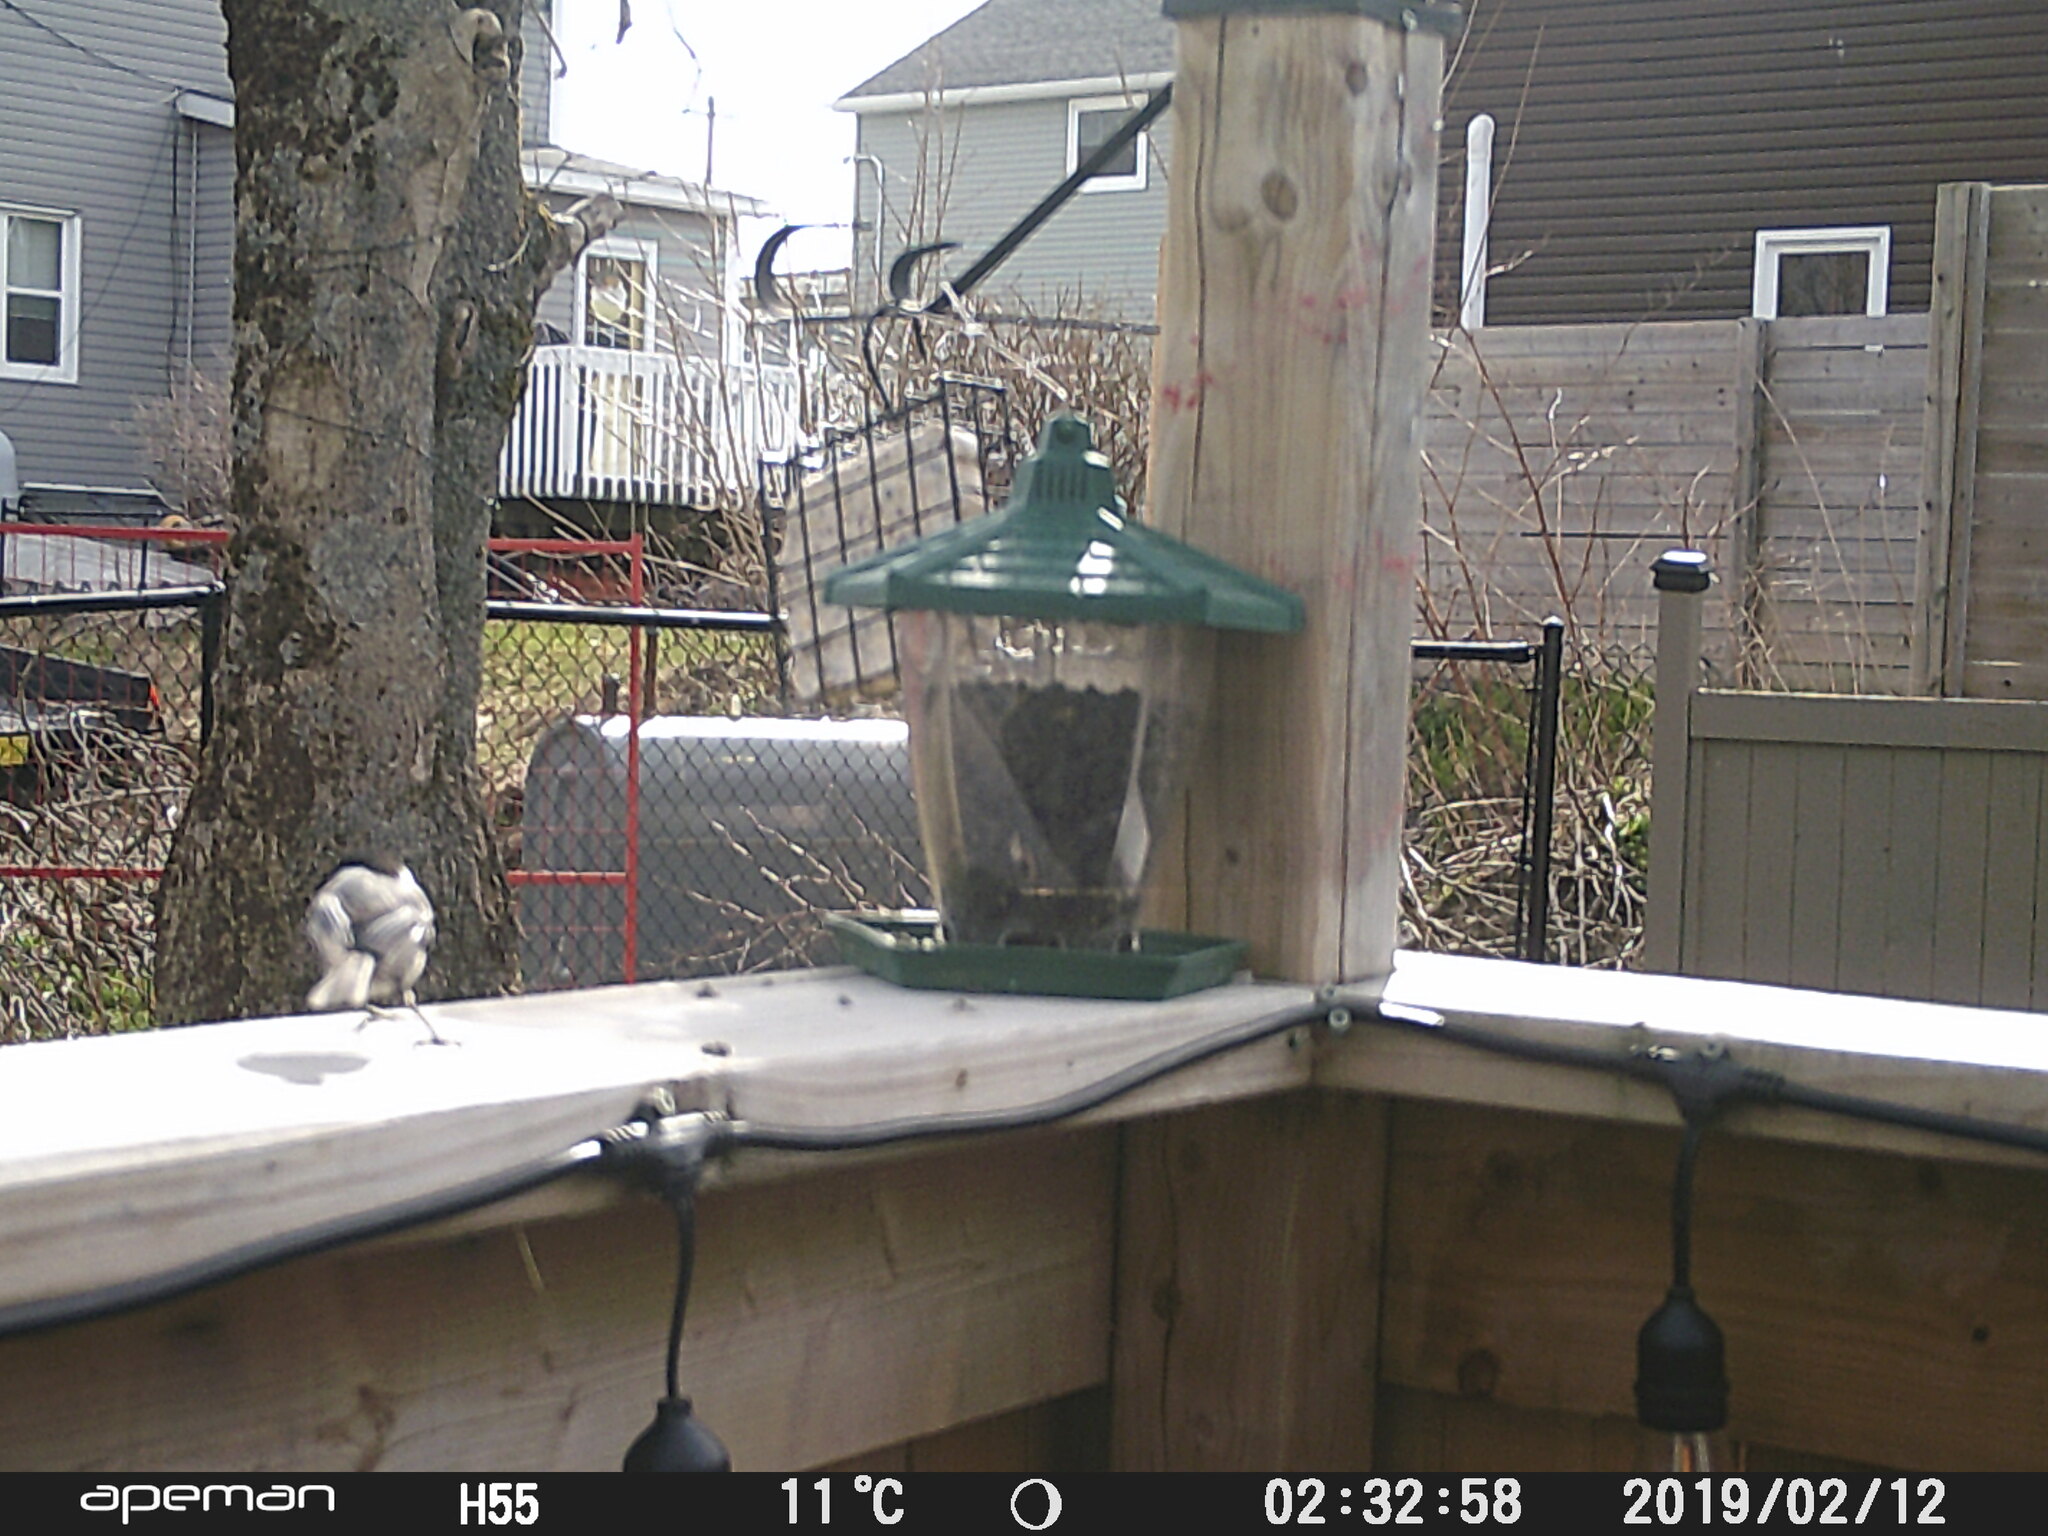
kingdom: Animalia
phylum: Chordata
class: Aves
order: Passeriformes
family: Paridae
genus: Poecile
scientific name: Poecile atricapillus
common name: Black-capped chickadee
